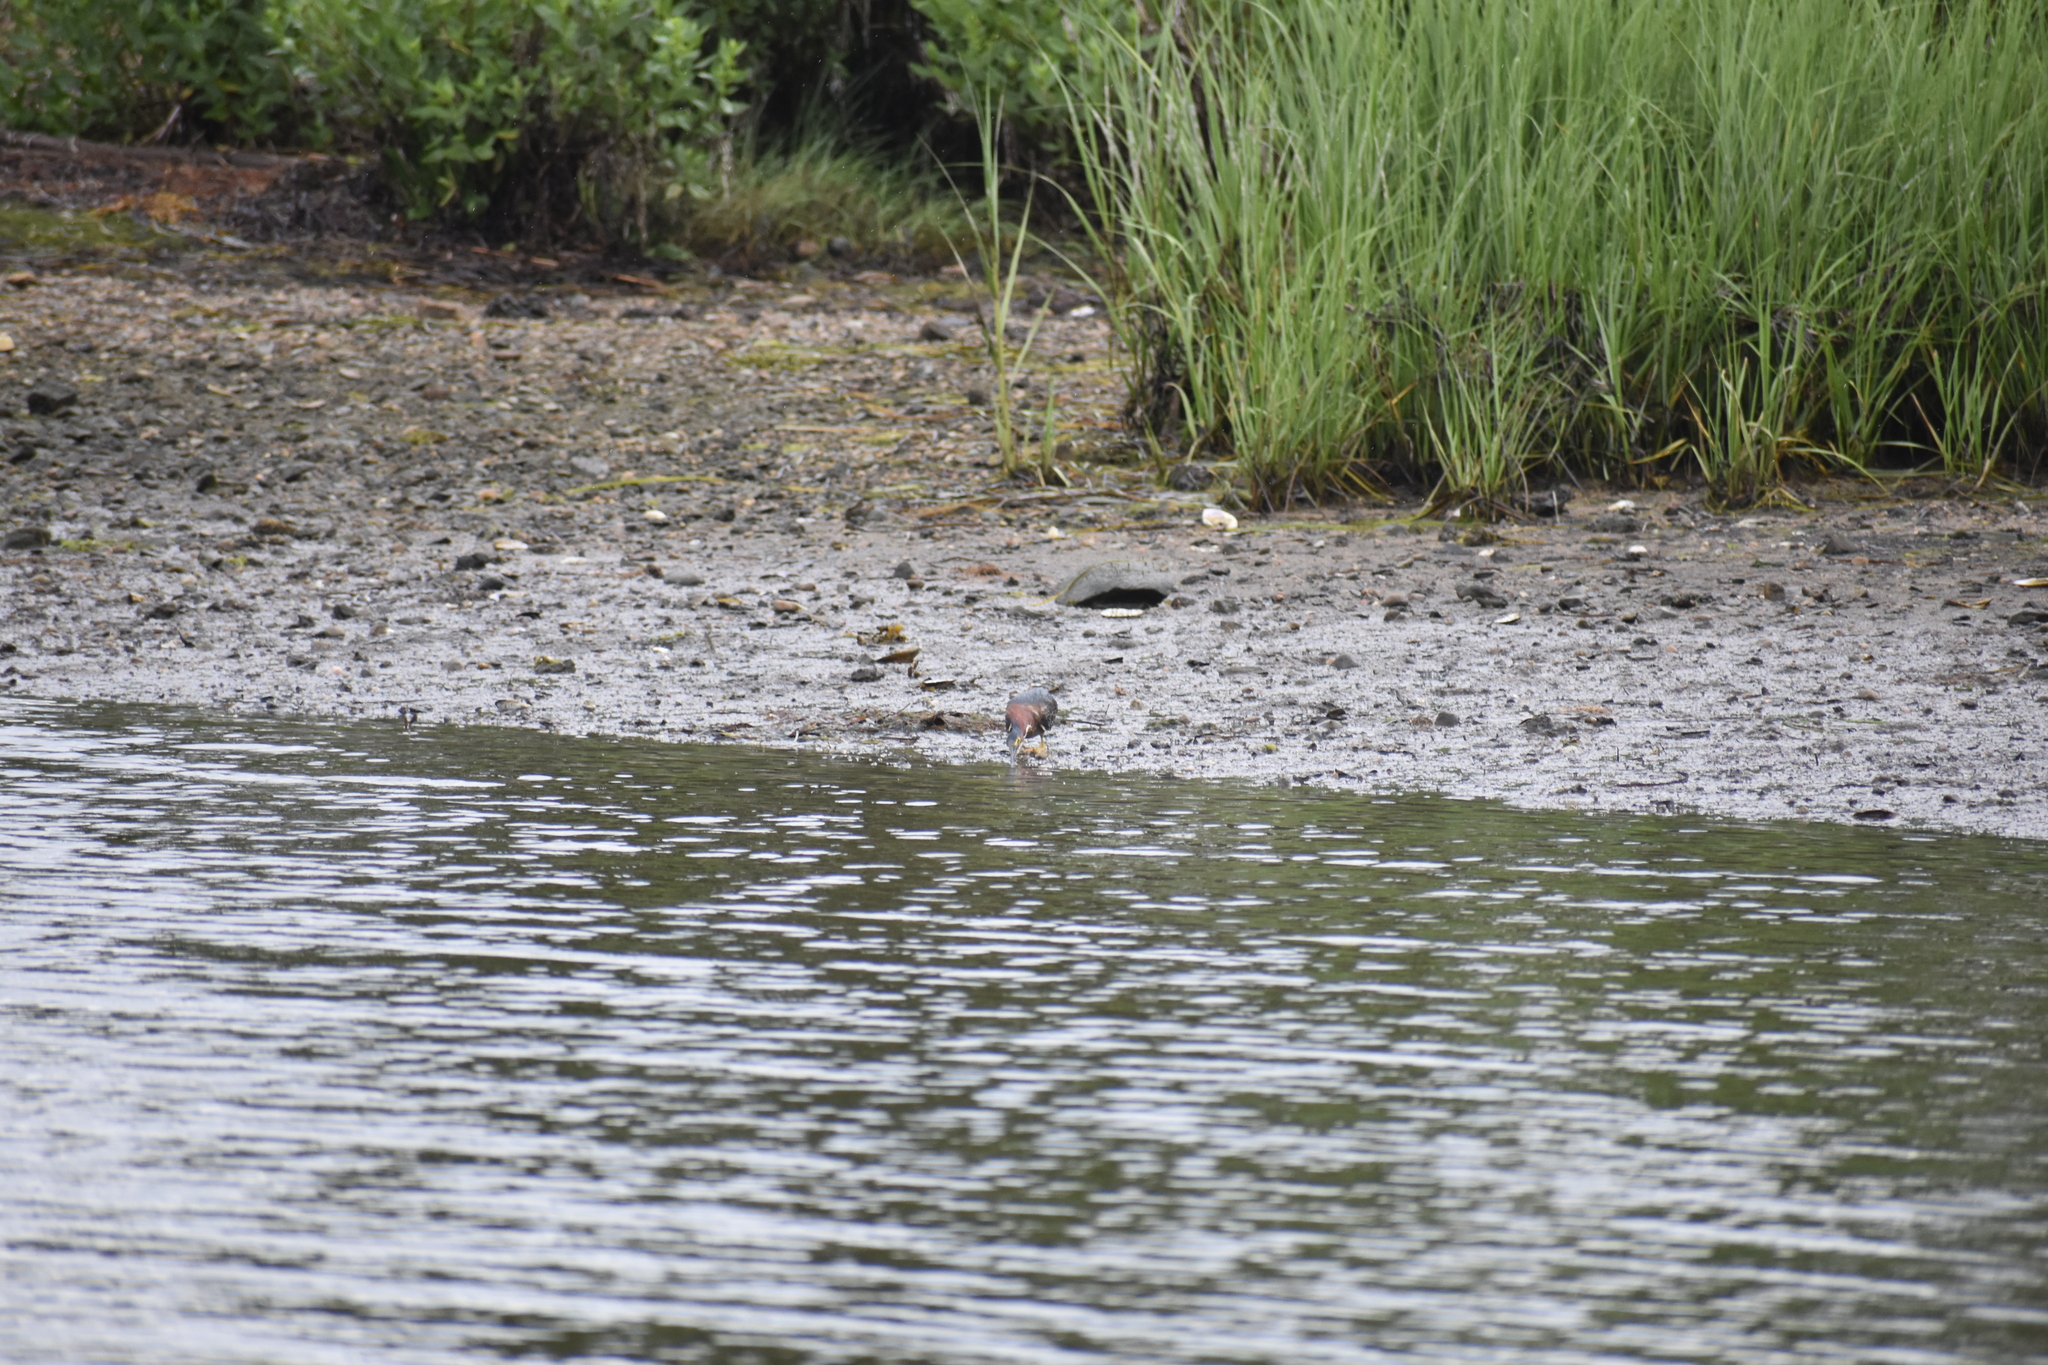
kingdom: Animalia
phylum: Chordata
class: Aves
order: Pelecaniformes
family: Ardeidae
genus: Butorides
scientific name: Butorides virescens
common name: Green heron
